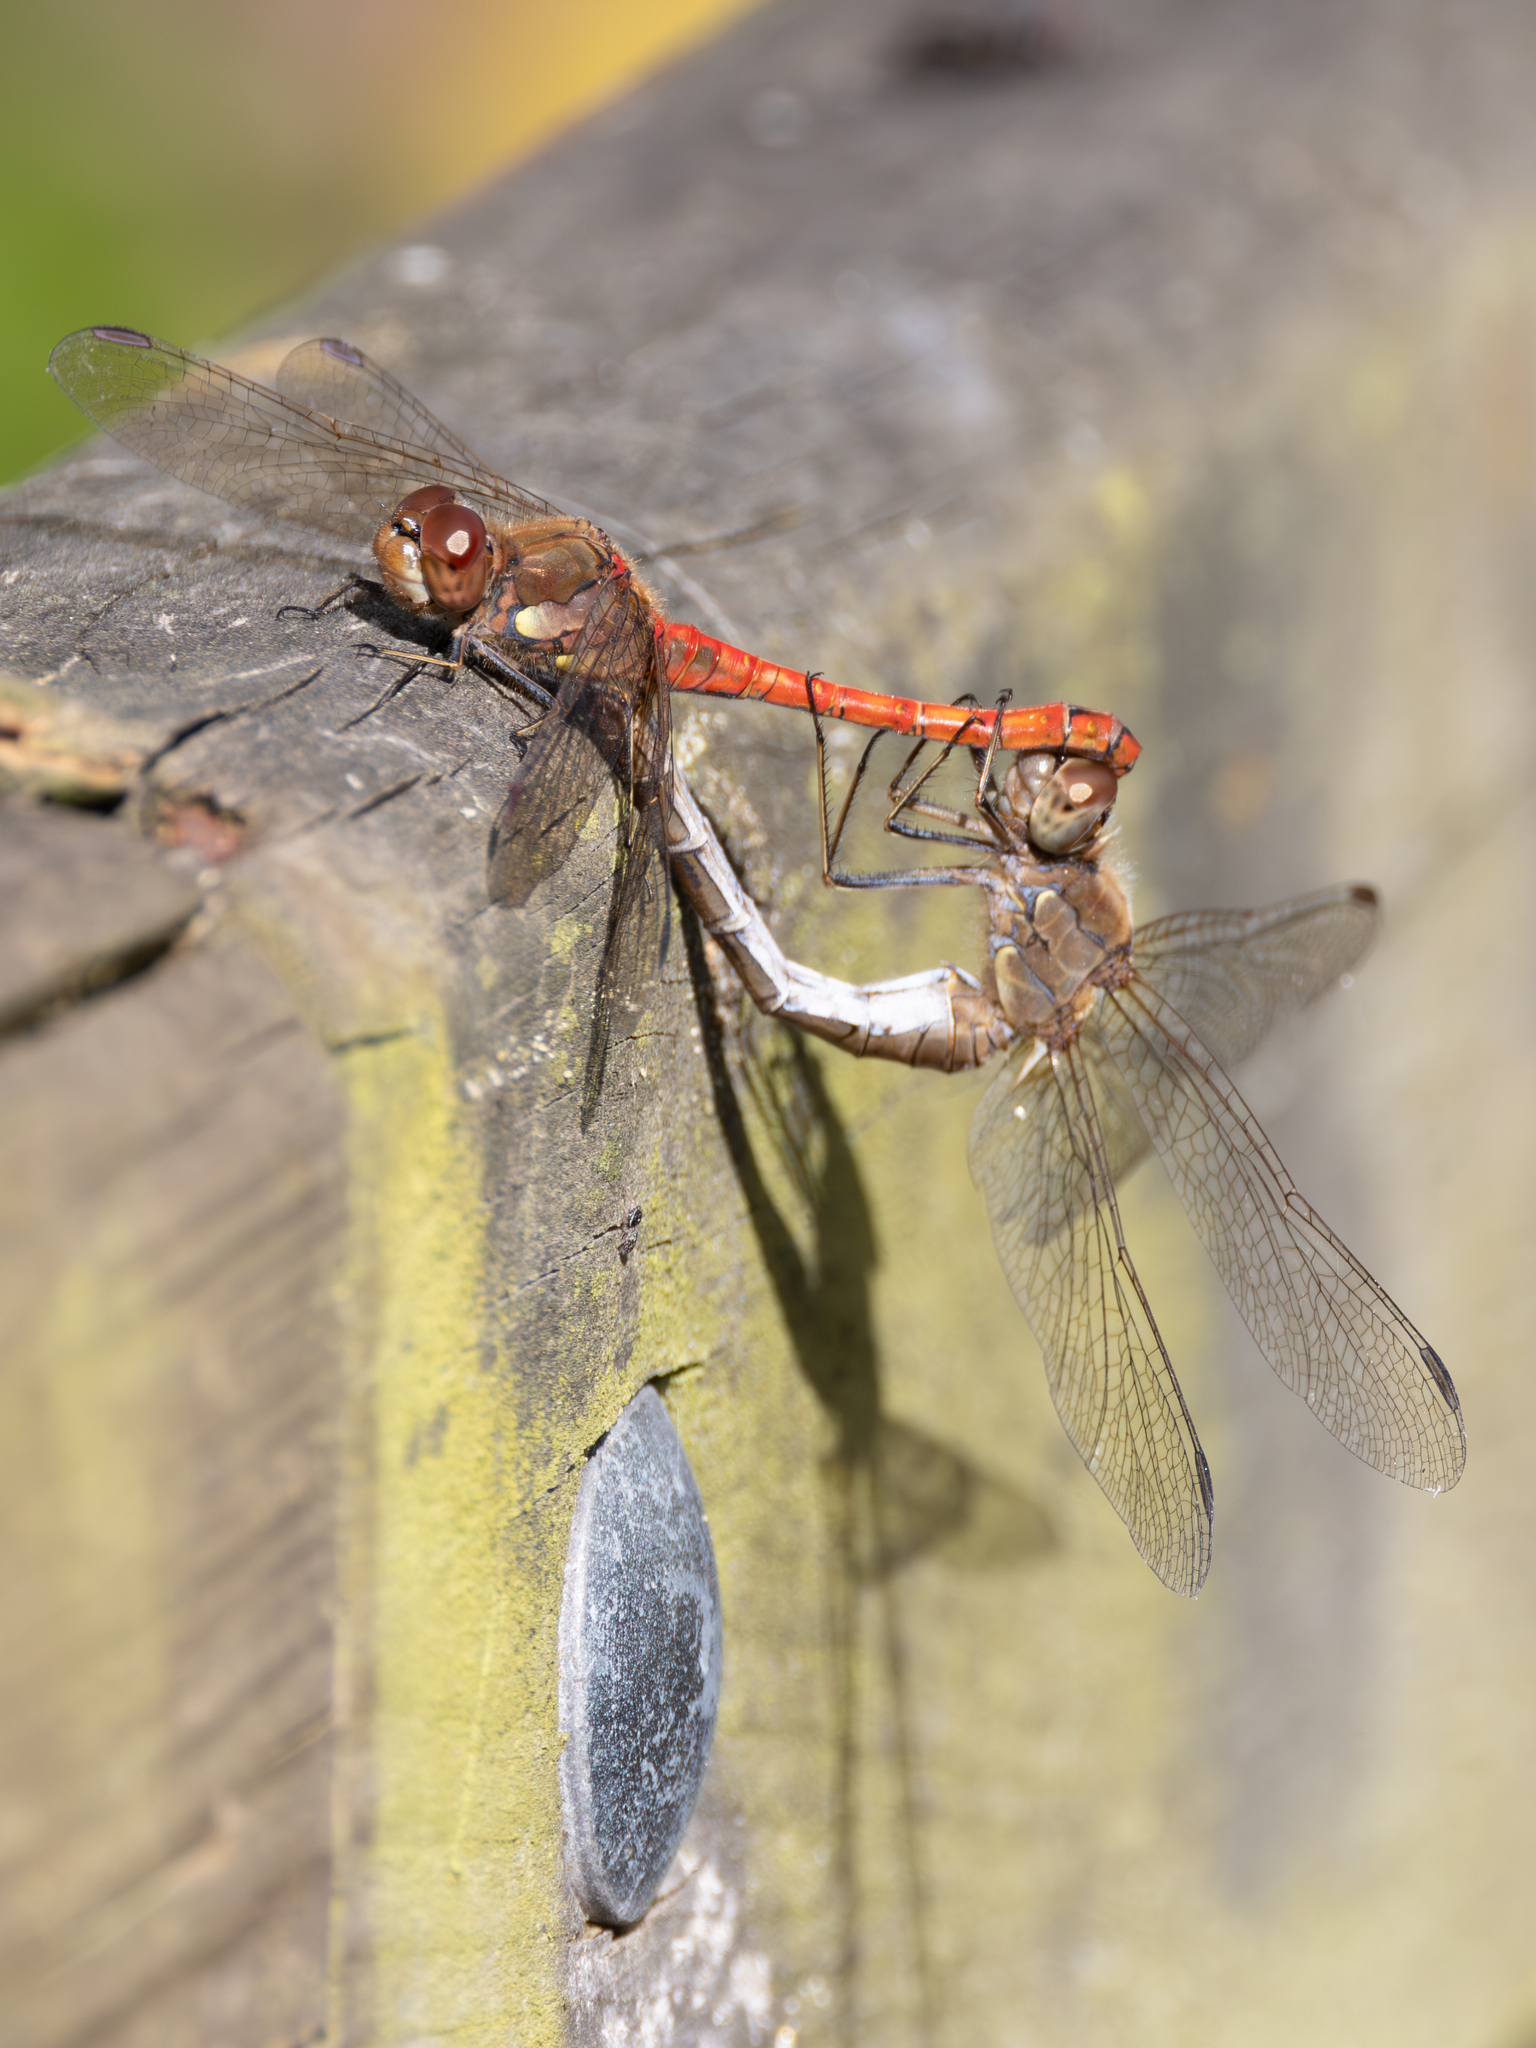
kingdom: Animalia
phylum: Arthropoda
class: Insecta
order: Odonata
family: Libellulidae
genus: Sympetrum
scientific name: Sympetrum striolatum
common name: Common darter
